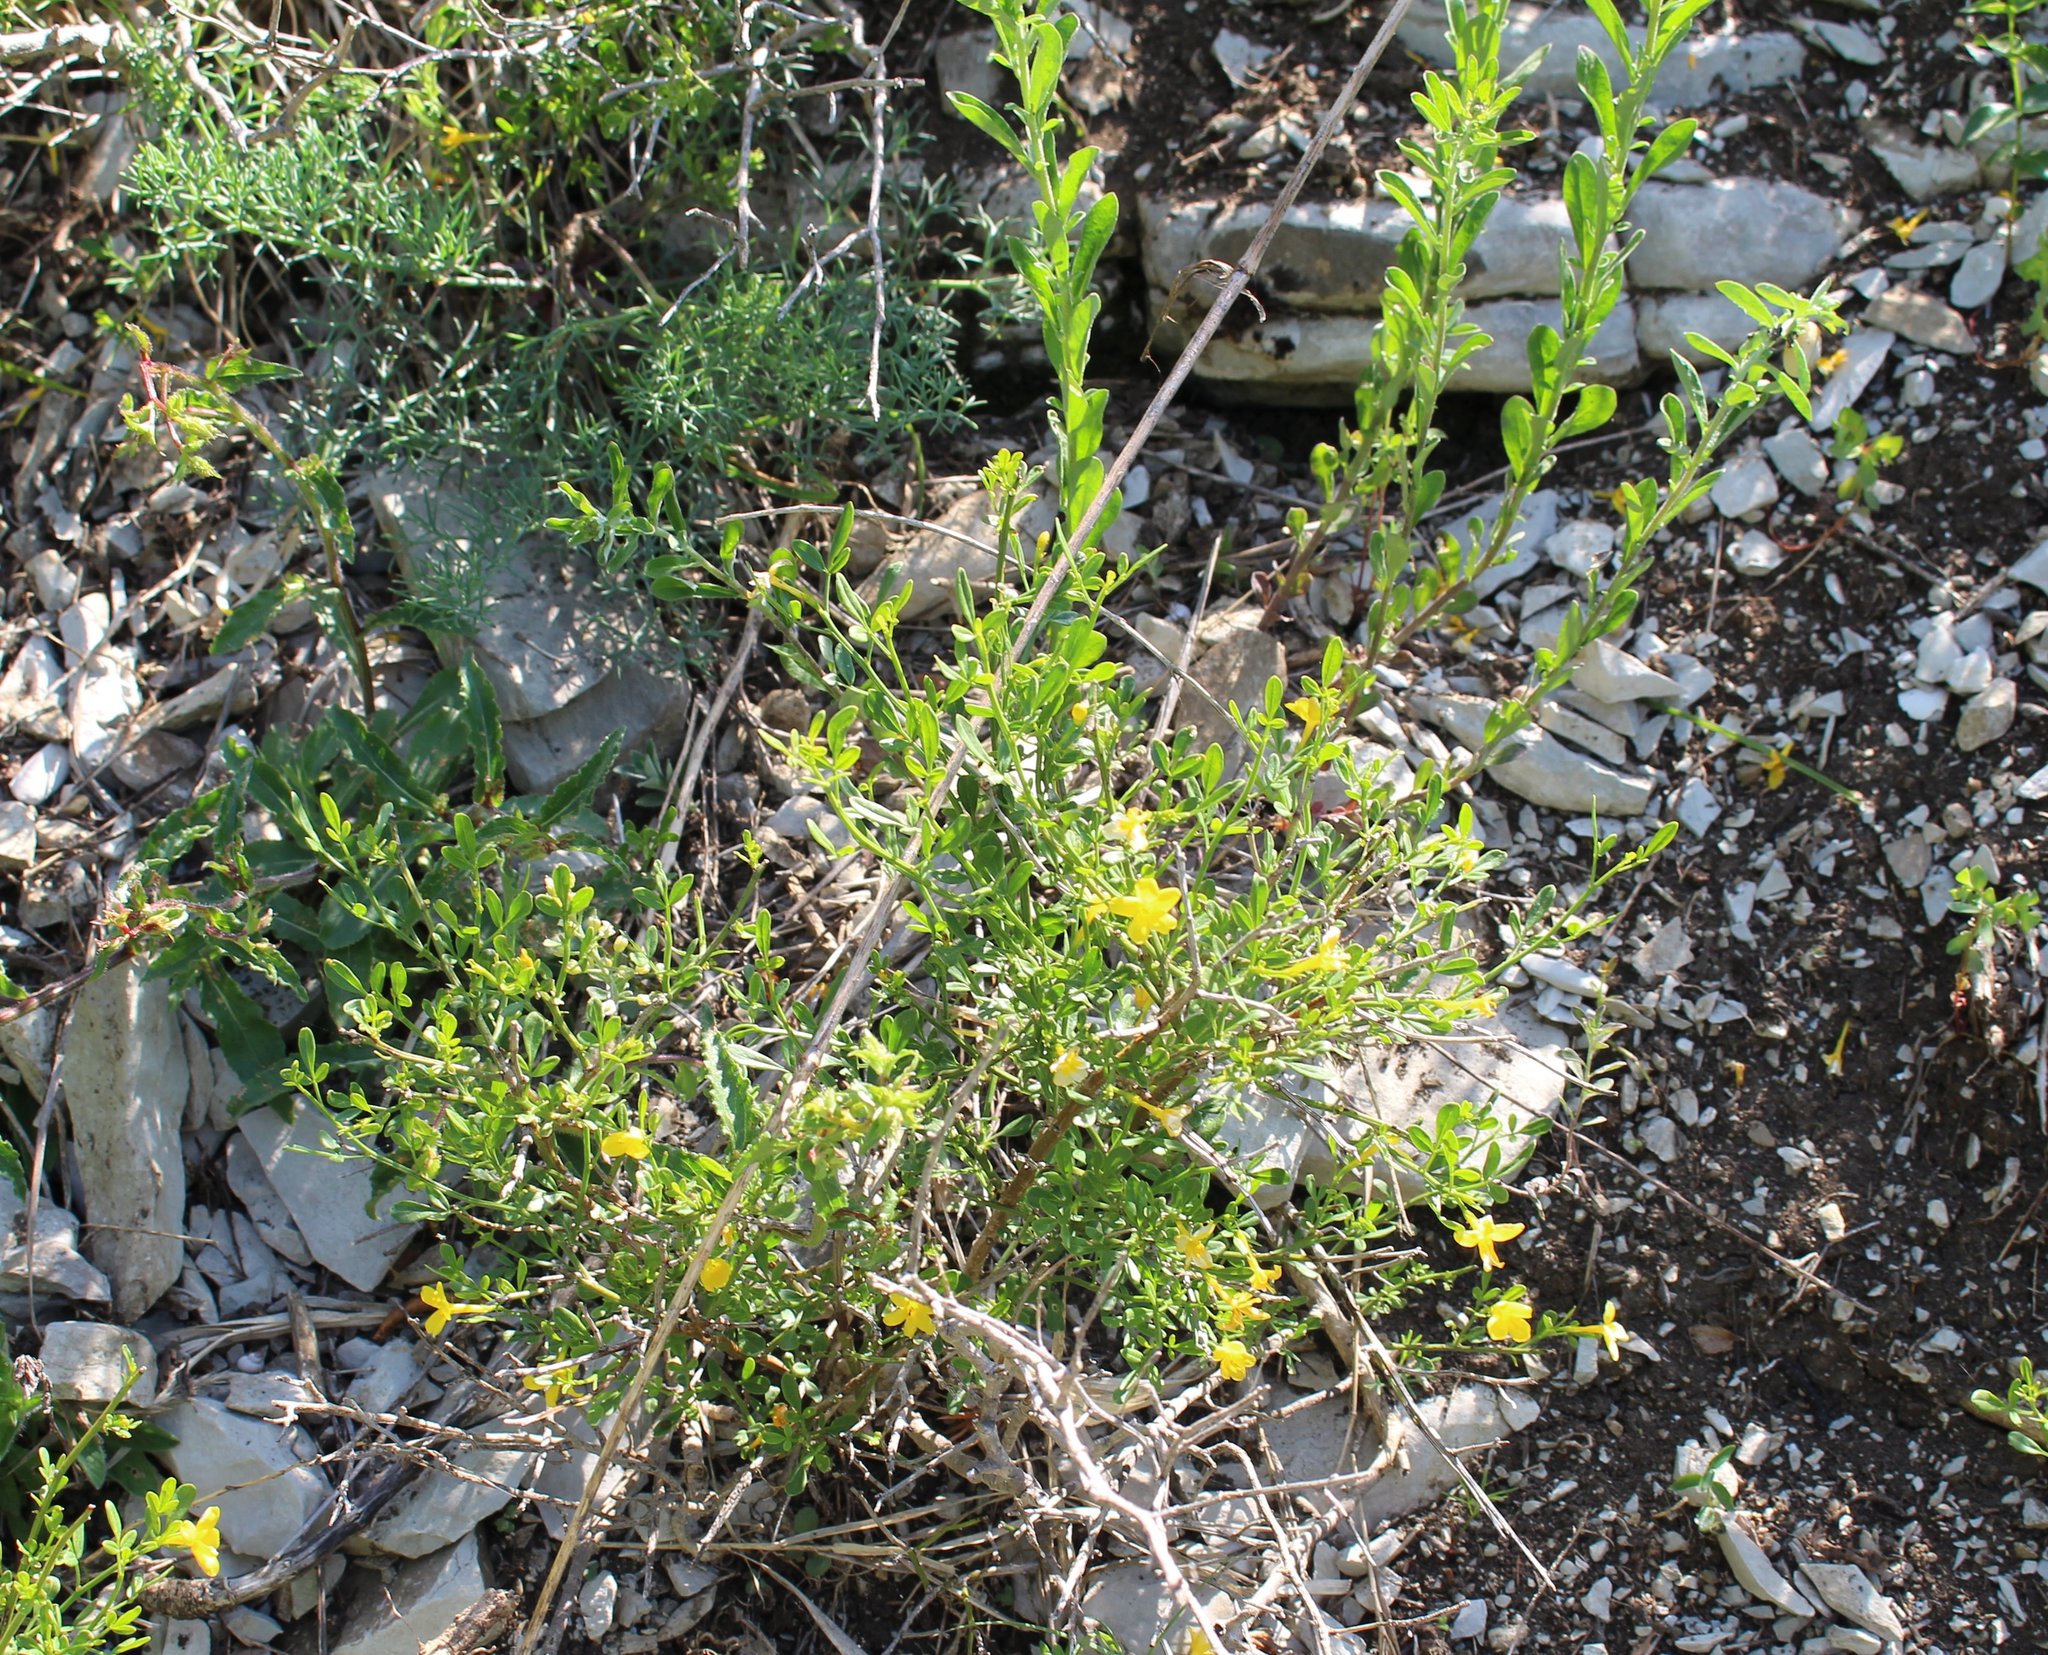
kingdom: Plantae
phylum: Tracheophyta
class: Magnoliopsida
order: Lamiales
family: Oleaceae
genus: Chrysojasminum
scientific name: Chrysojasminum fruticans
